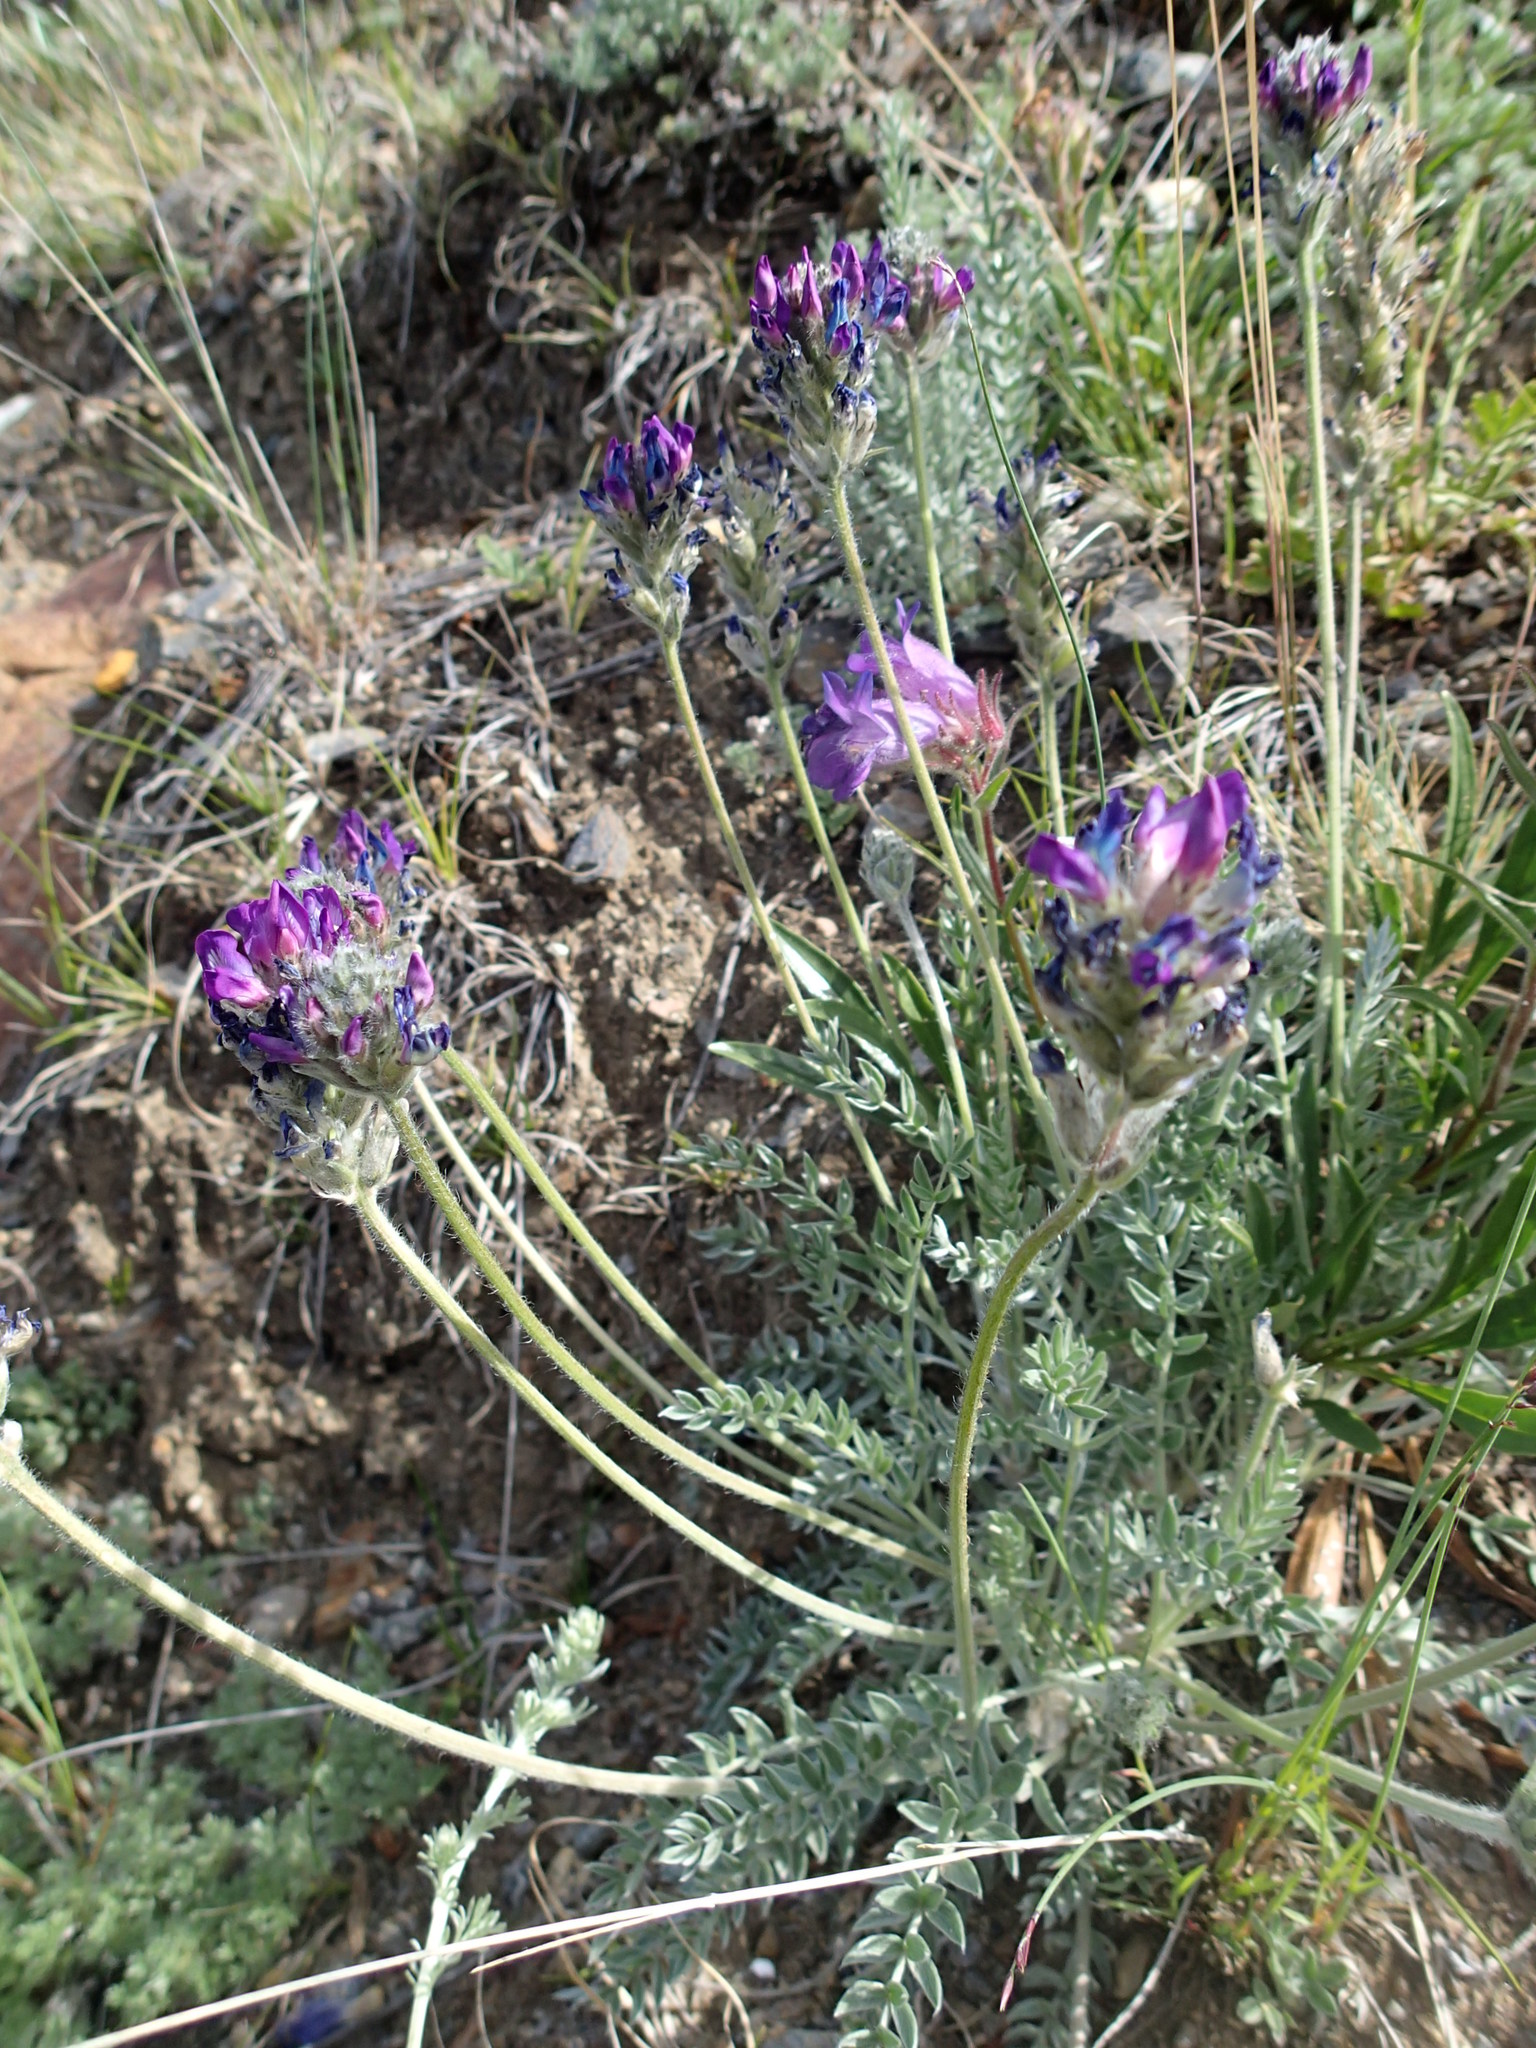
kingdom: Plantae
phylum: Tracheophyta
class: Magnoliopsida
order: Fabales
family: Fabaceae
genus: Oxytropis
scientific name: Oxytropis splendens
